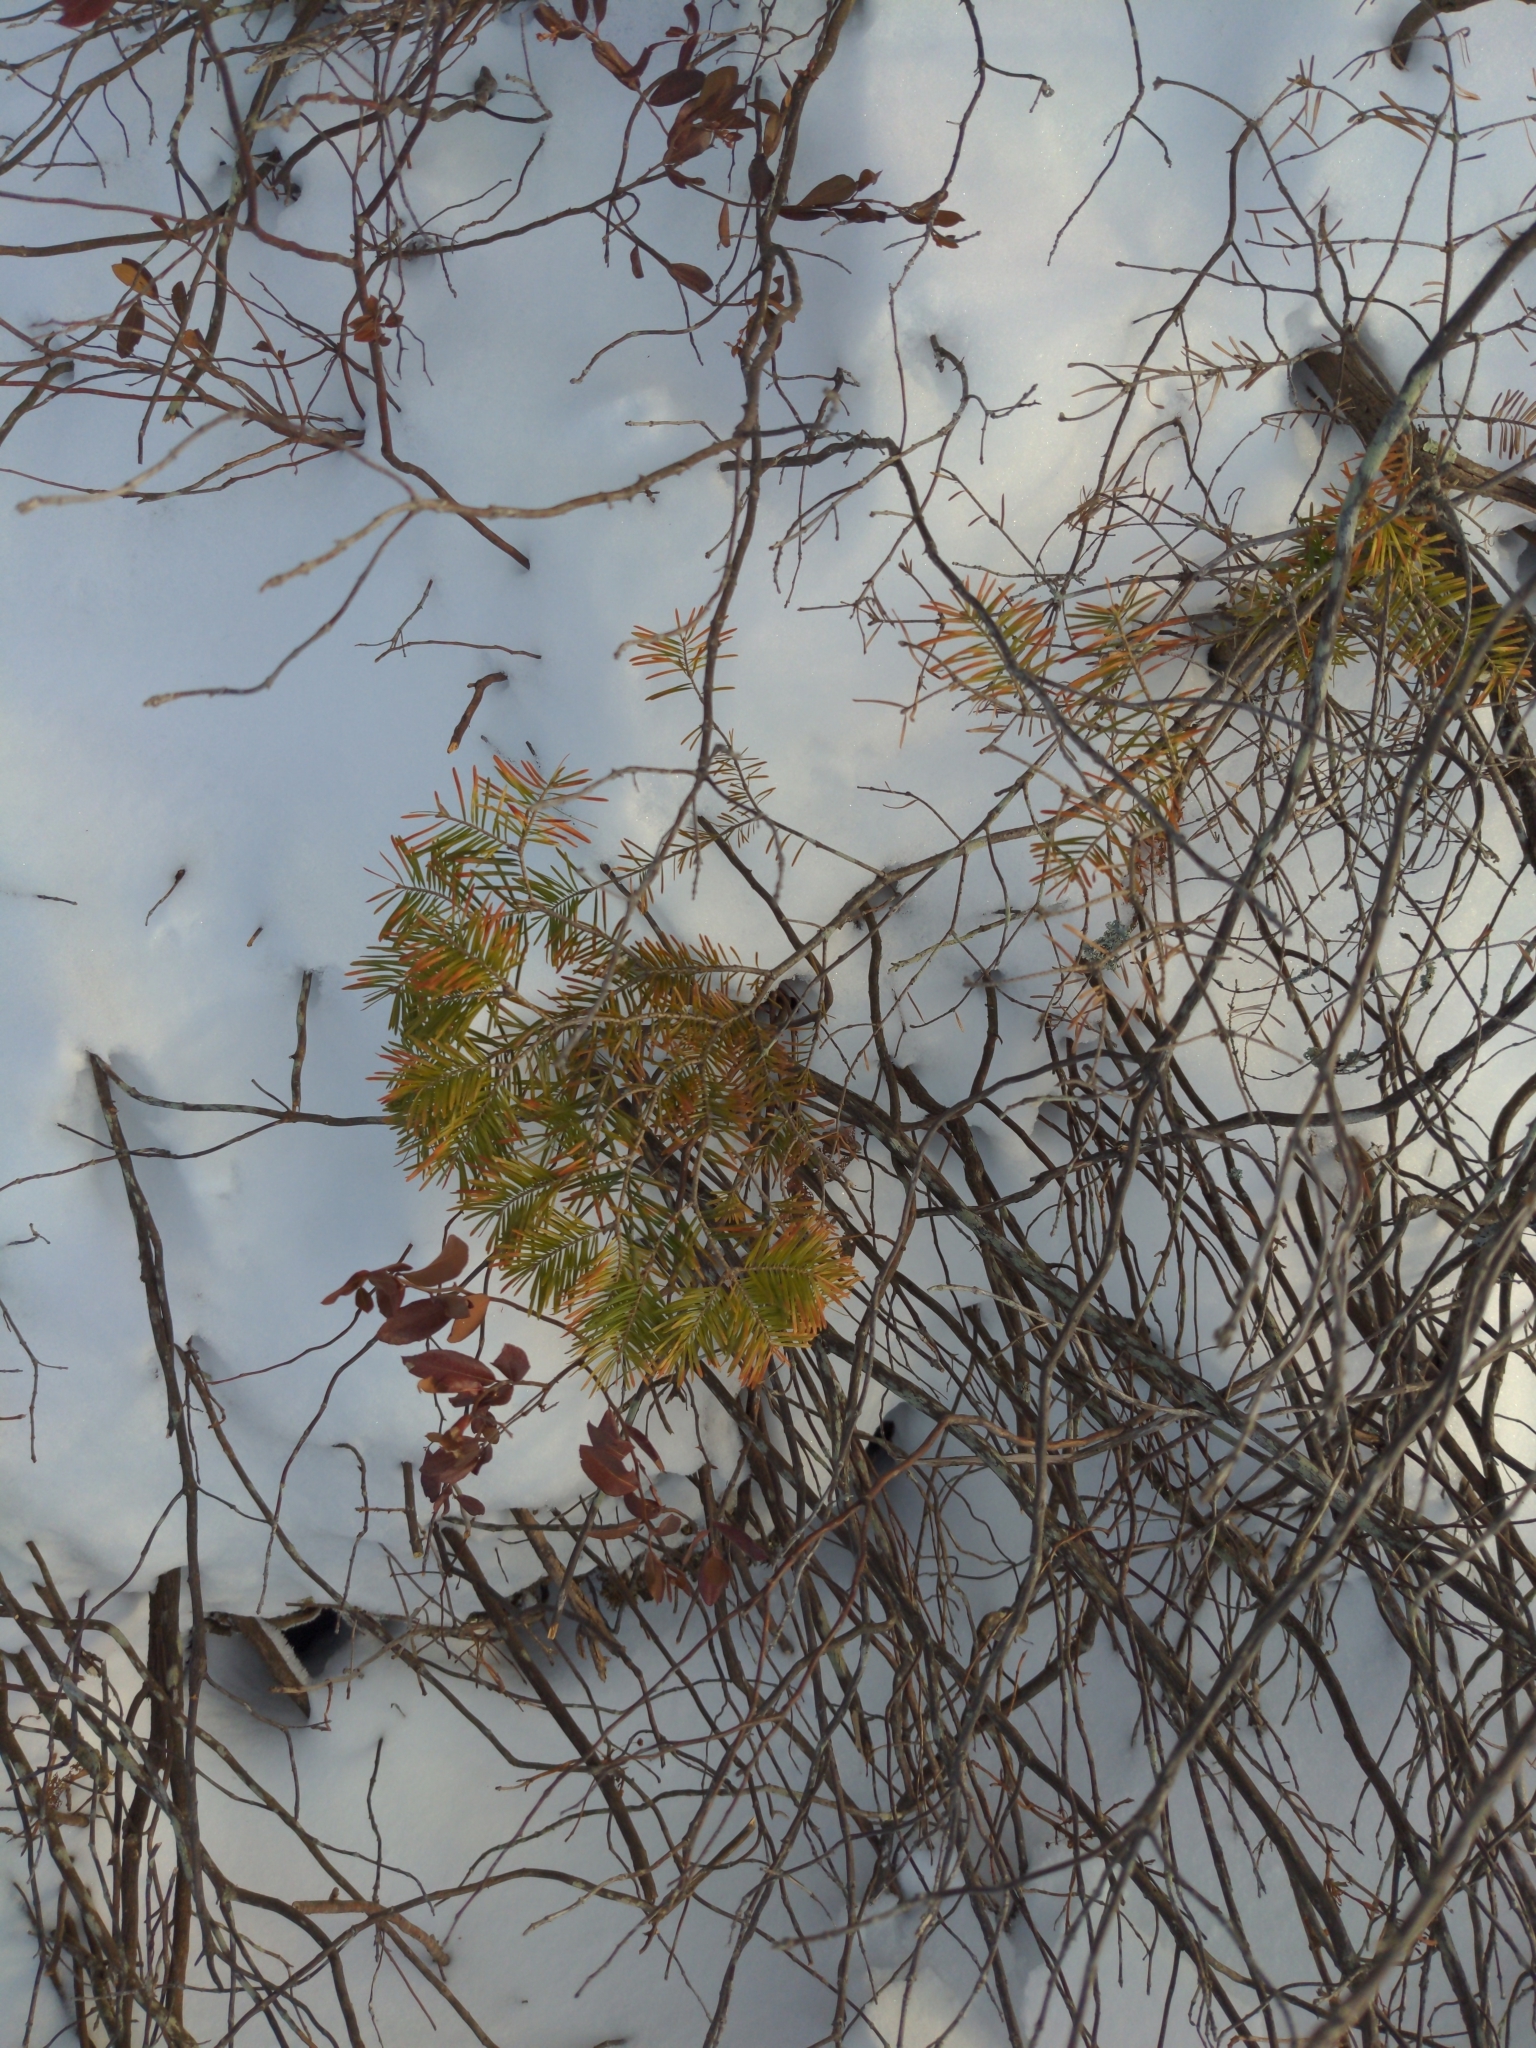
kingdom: Plantae
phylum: Tracheophyta
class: Pinopsida
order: Pinales
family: Pinaceae
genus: Abies
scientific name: Abies balsamea
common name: Balsam fir
